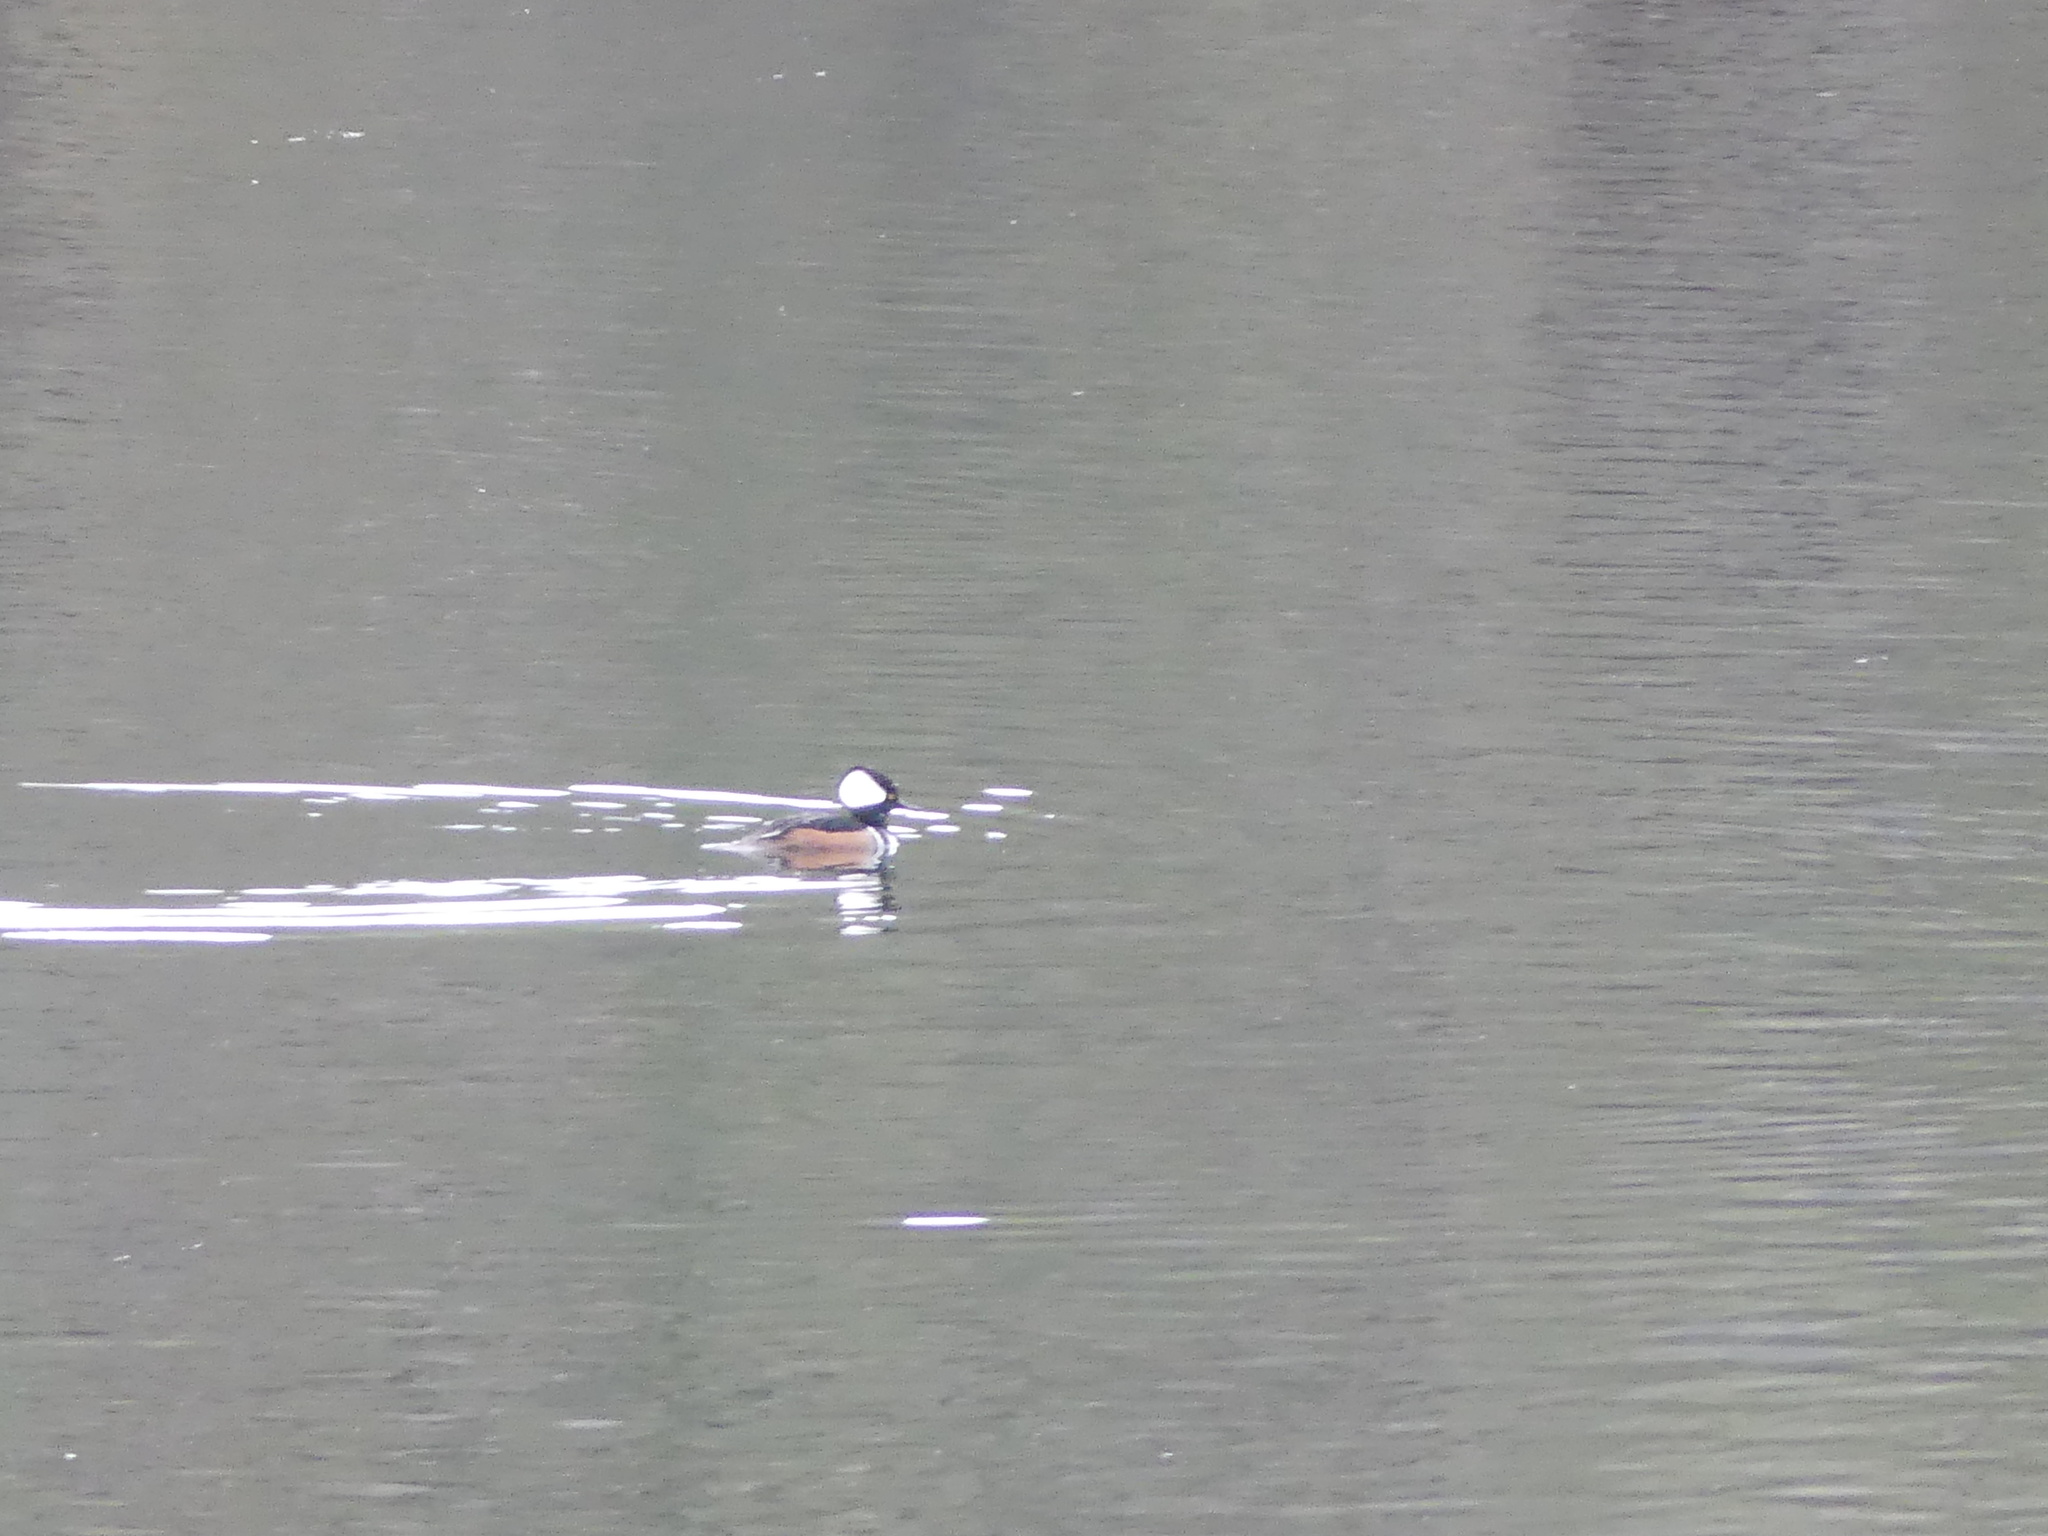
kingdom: Animalia
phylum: Chordata
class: Aves
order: Anseriformes
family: Anatidae
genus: Lophodytes
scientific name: Lophodytes cucullatus
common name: Hooded merganser
